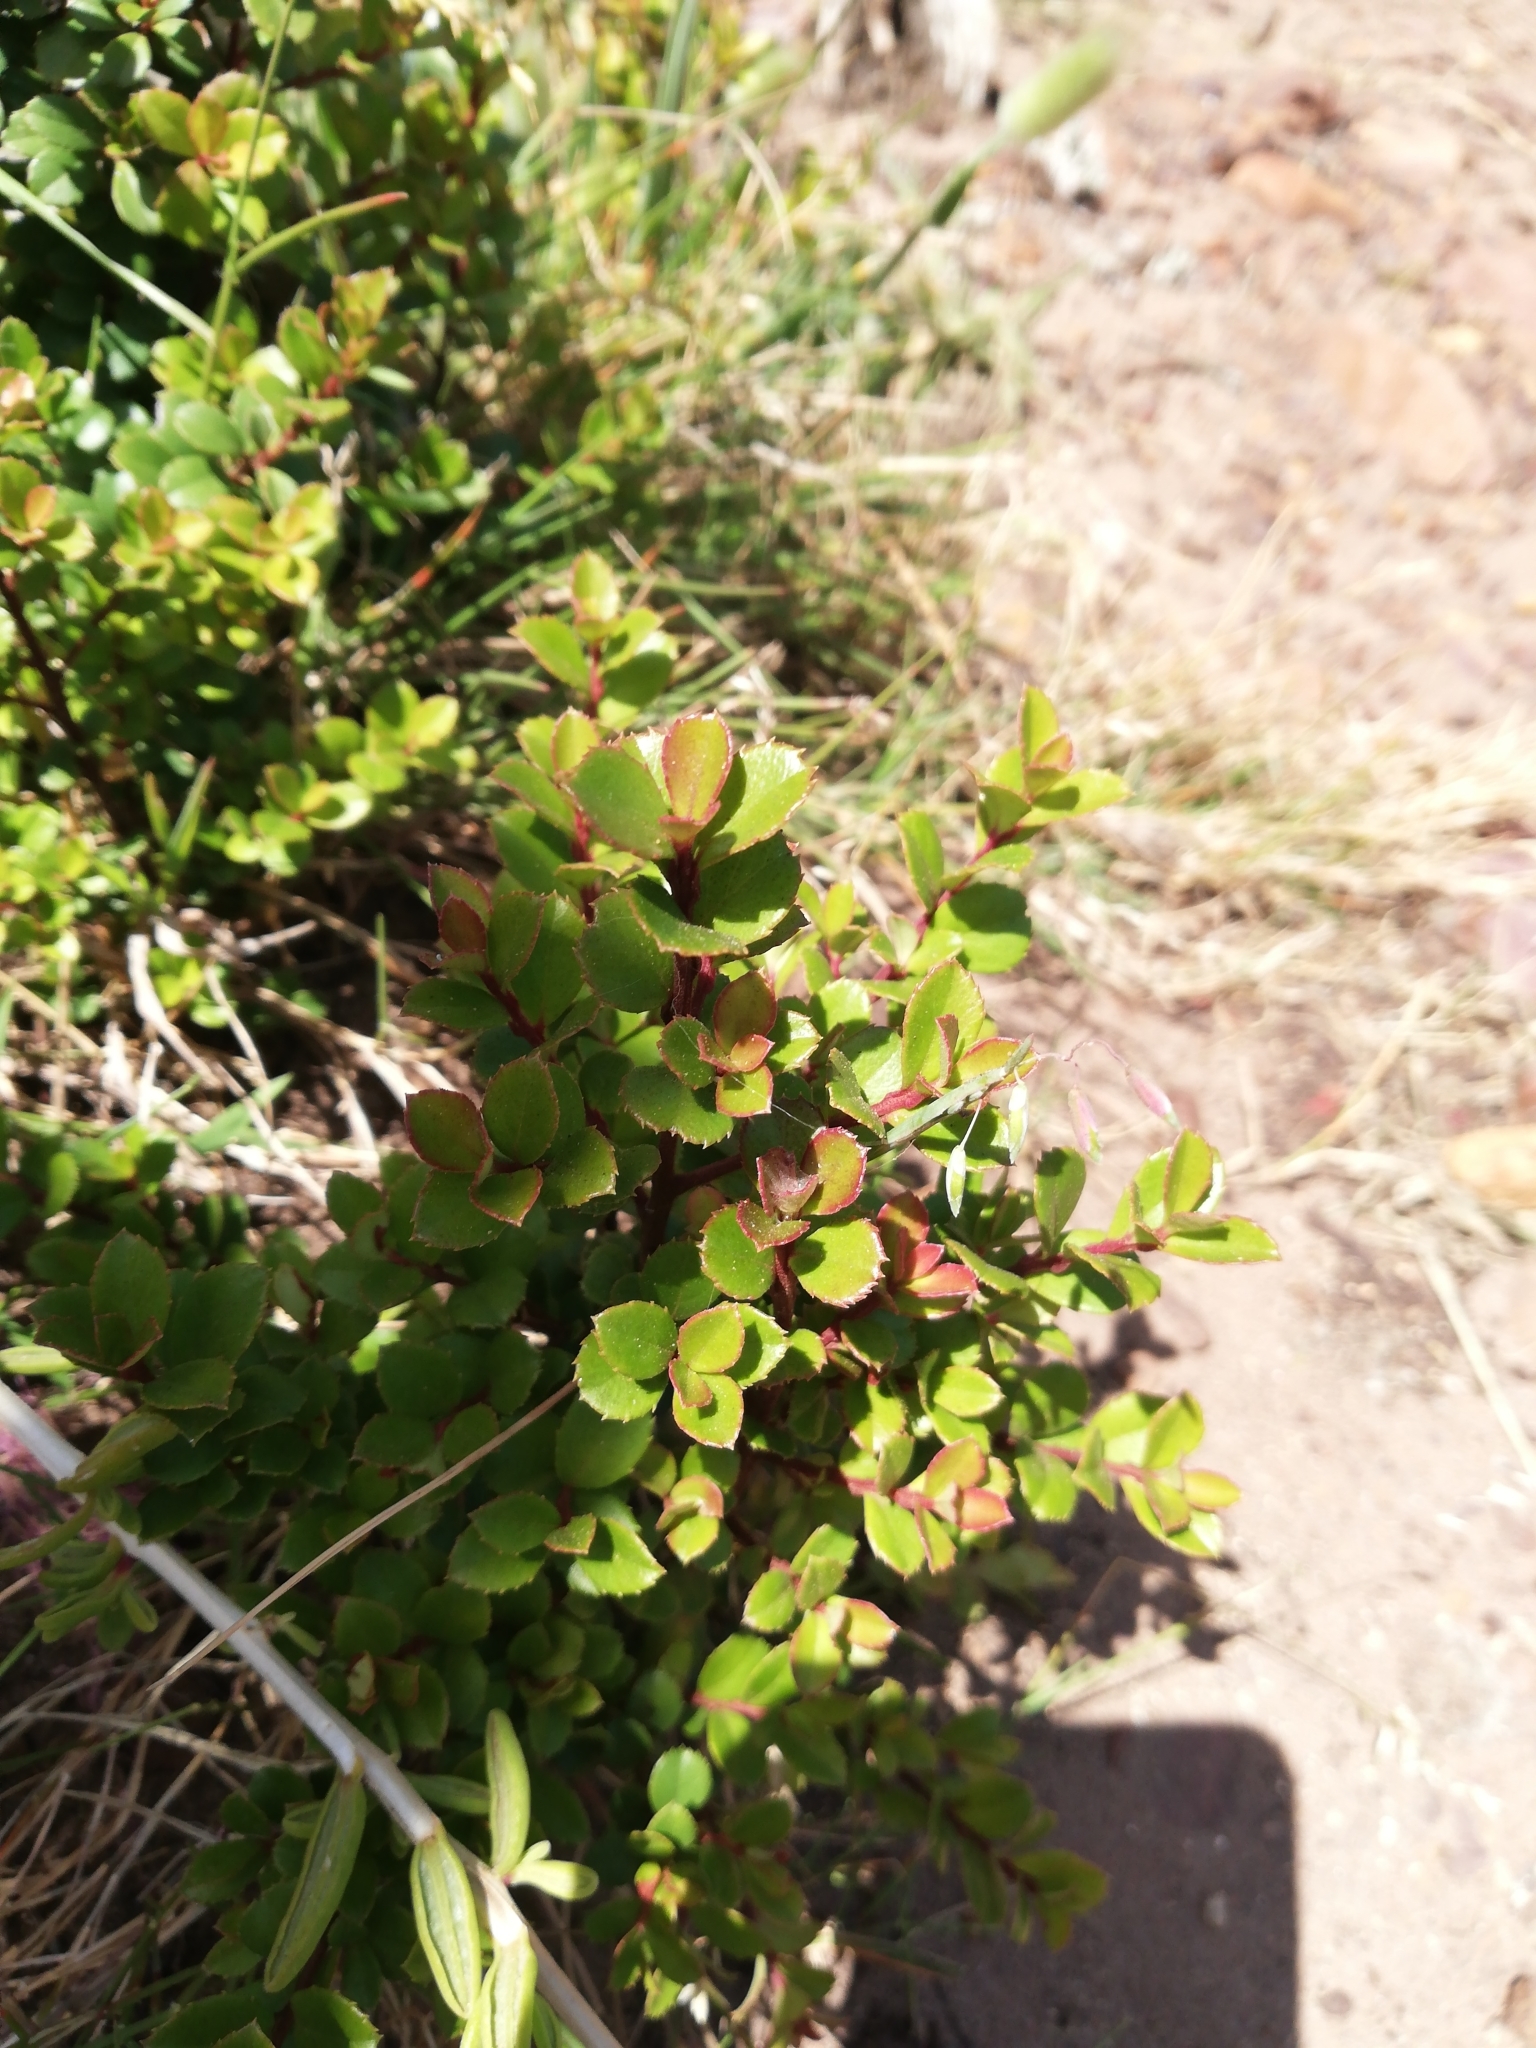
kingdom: Plantae
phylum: Tracheophyta
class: Magnoliopsida
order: Ericales
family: Primulaceae
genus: Myrsine
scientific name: Myrsine africana
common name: African-boxwood
